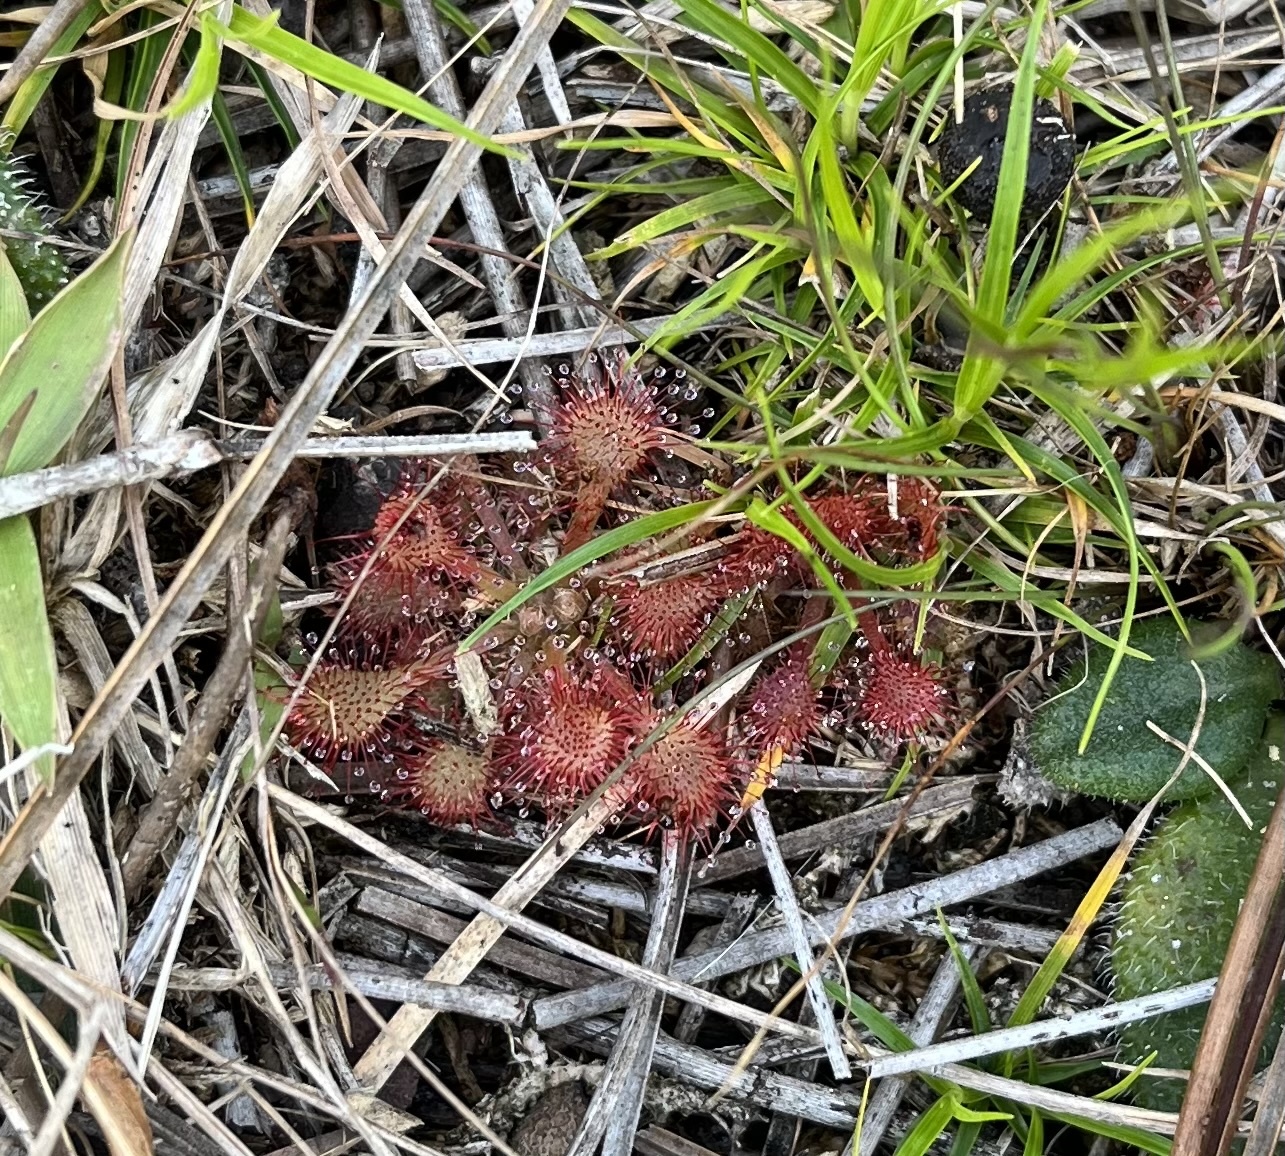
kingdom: Plantae
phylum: Tracheophyta
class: Magnoliopsida
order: Caryophyllales
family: Droseraceae
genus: Drosera
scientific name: Drosera capillaris
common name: Pink sundew
